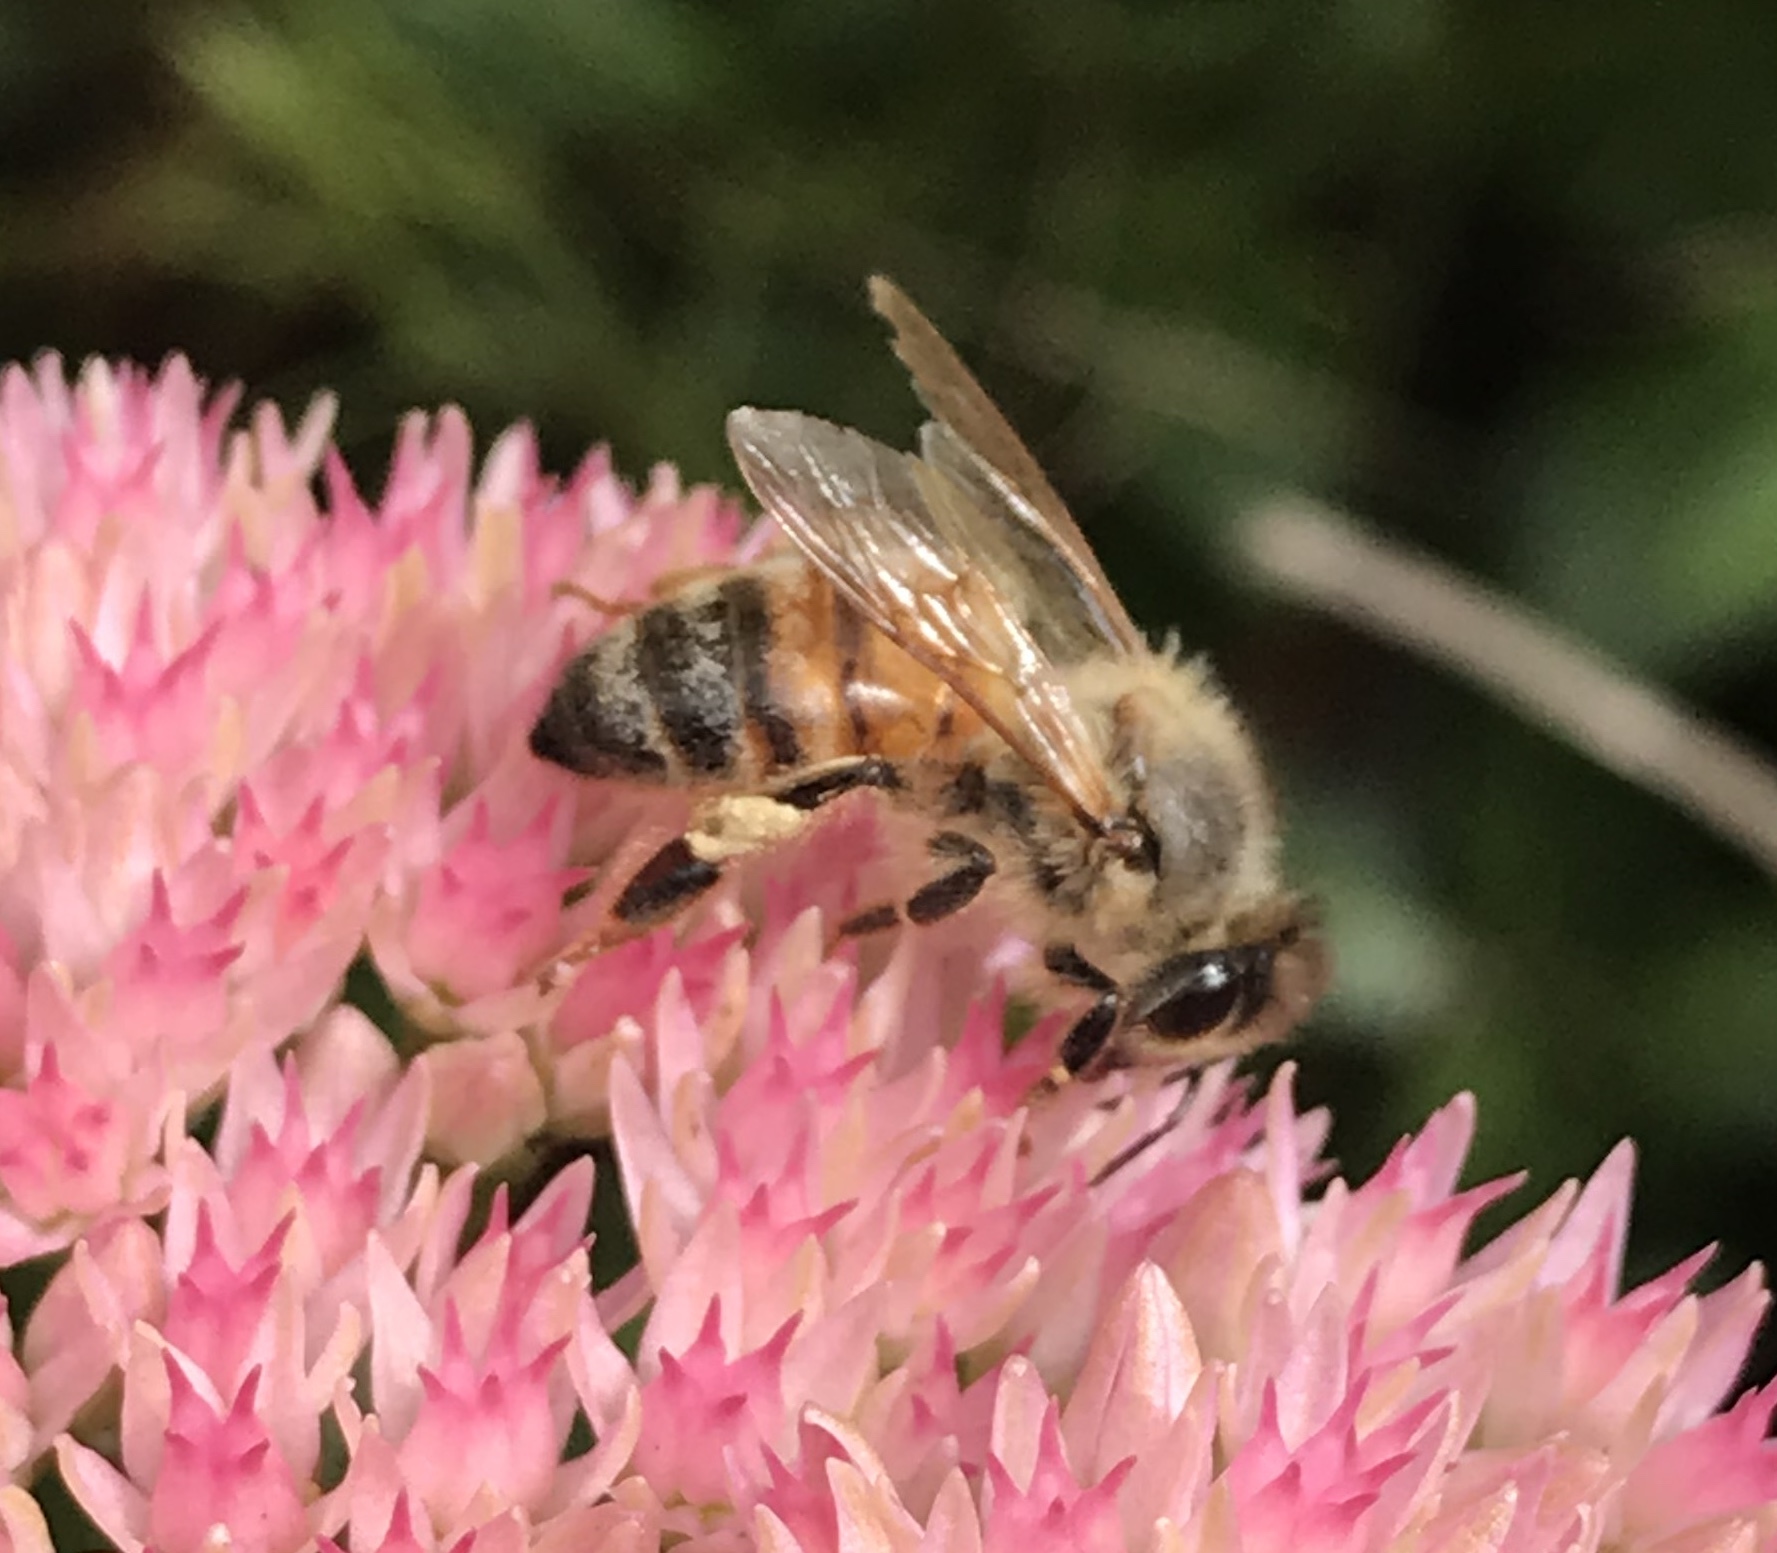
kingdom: Animalia
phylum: Arthropoda
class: Insecta
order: Hymenoptera
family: Apidae
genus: Apis
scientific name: Apis mellifera
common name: Honey bee
